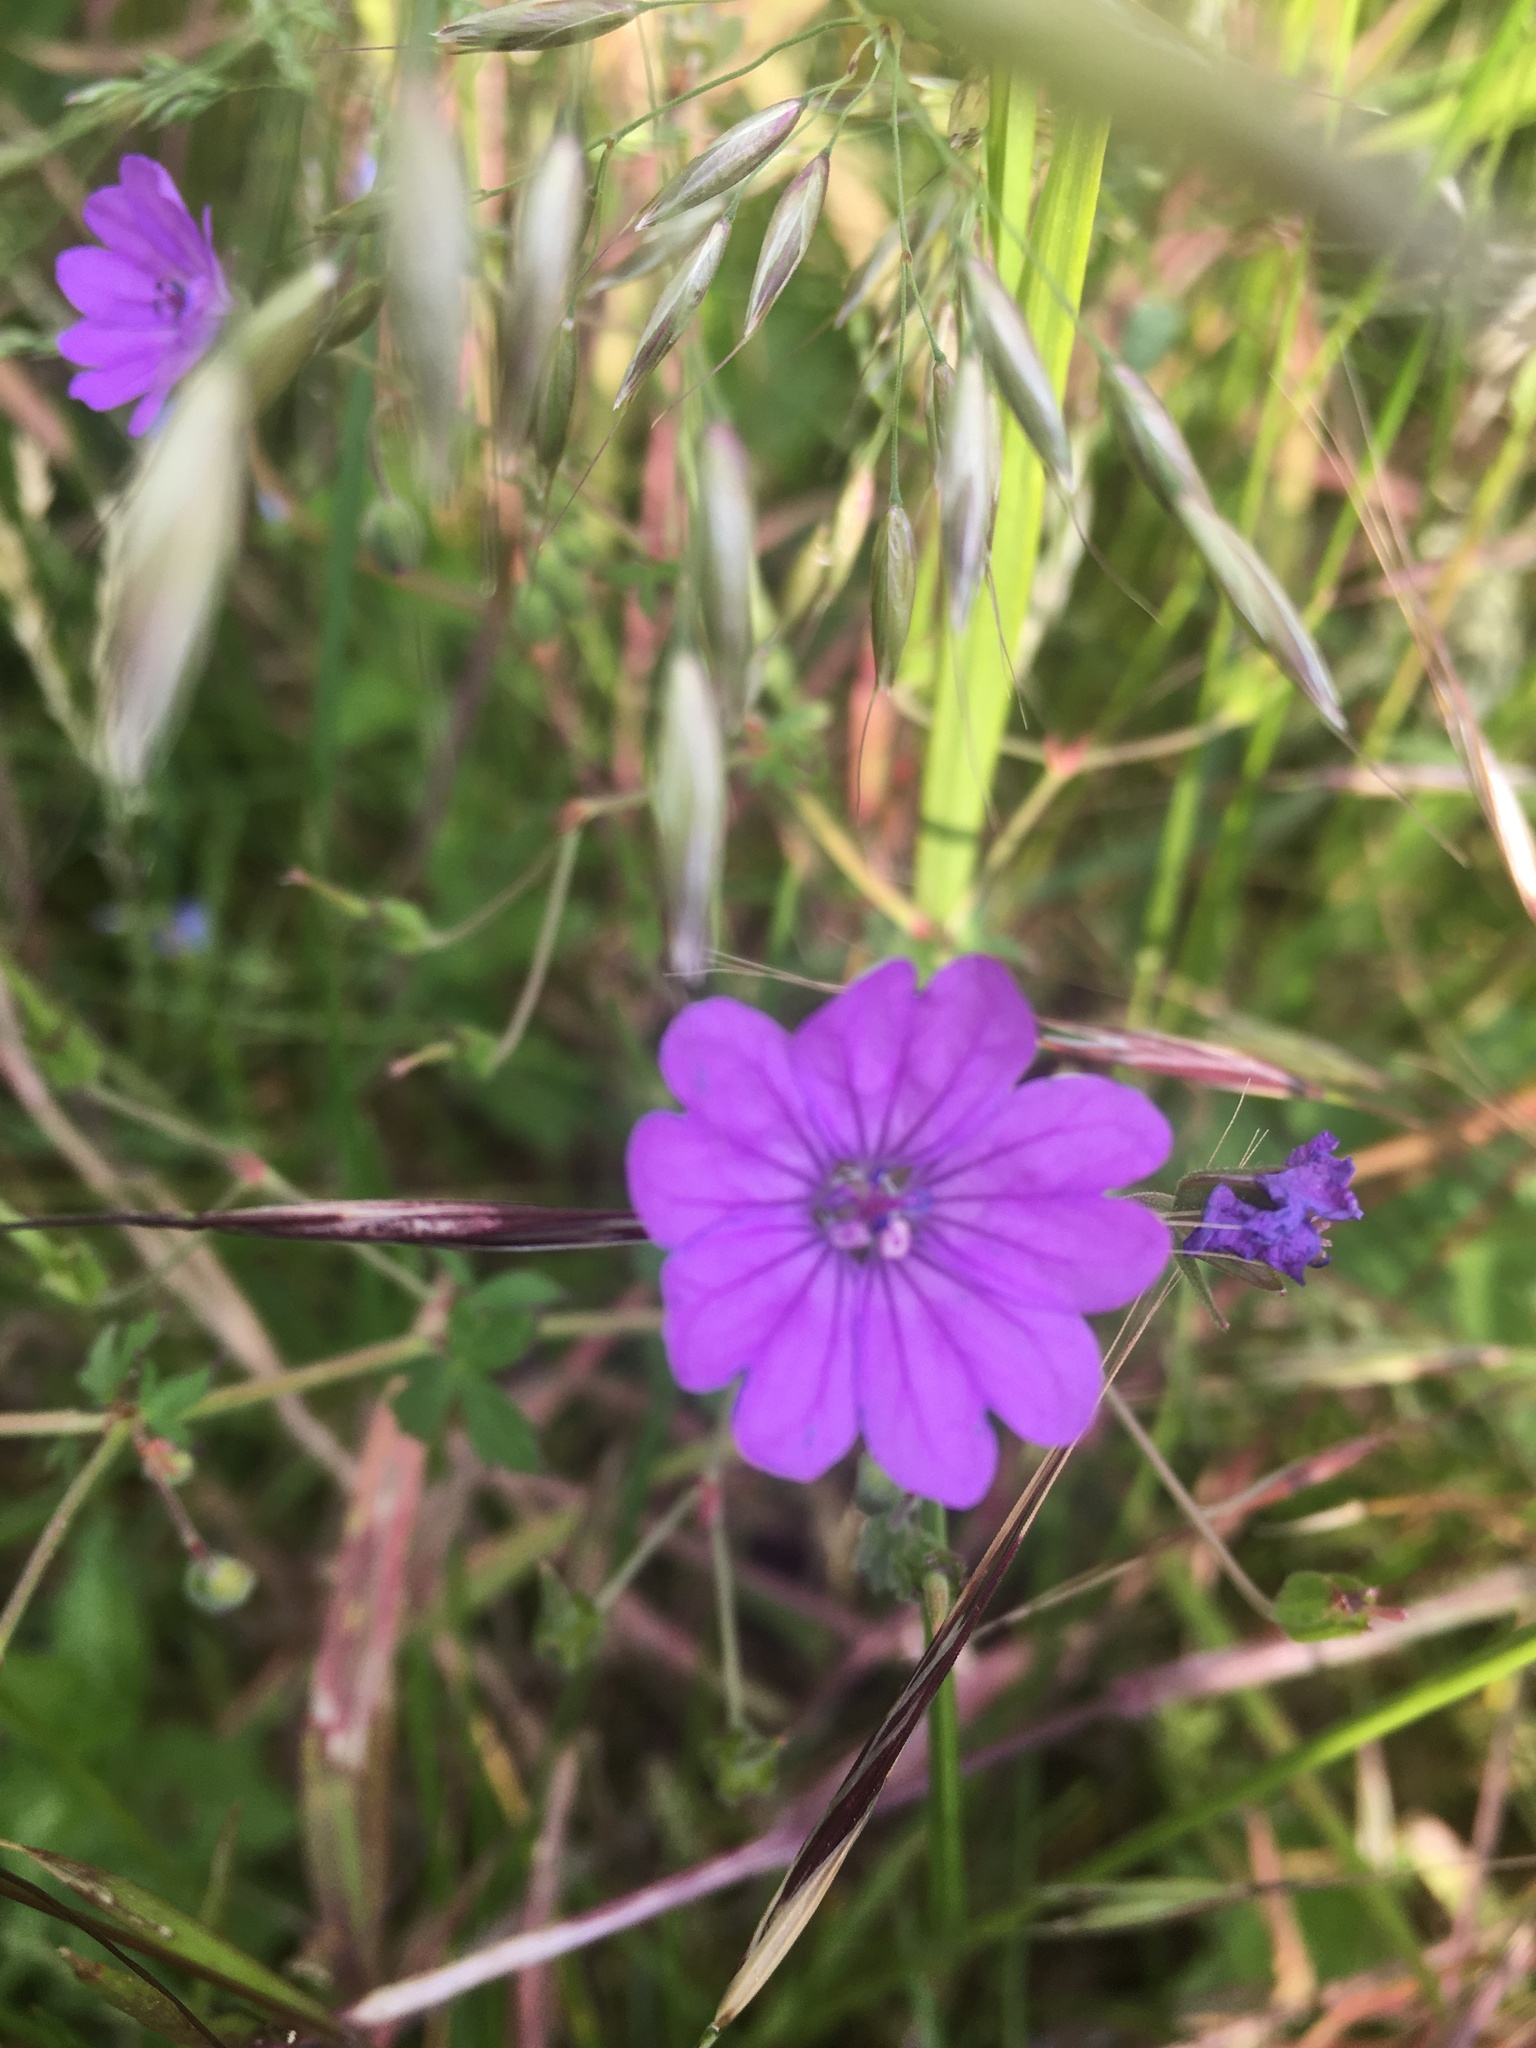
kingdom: Plantae
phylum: Tracheophyta
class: Magnoliopsida
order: Geraniales
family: Geraniaceae
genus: Geranium
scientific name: Geranium pyrenaicum
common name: Hedgerow crane's-bill
